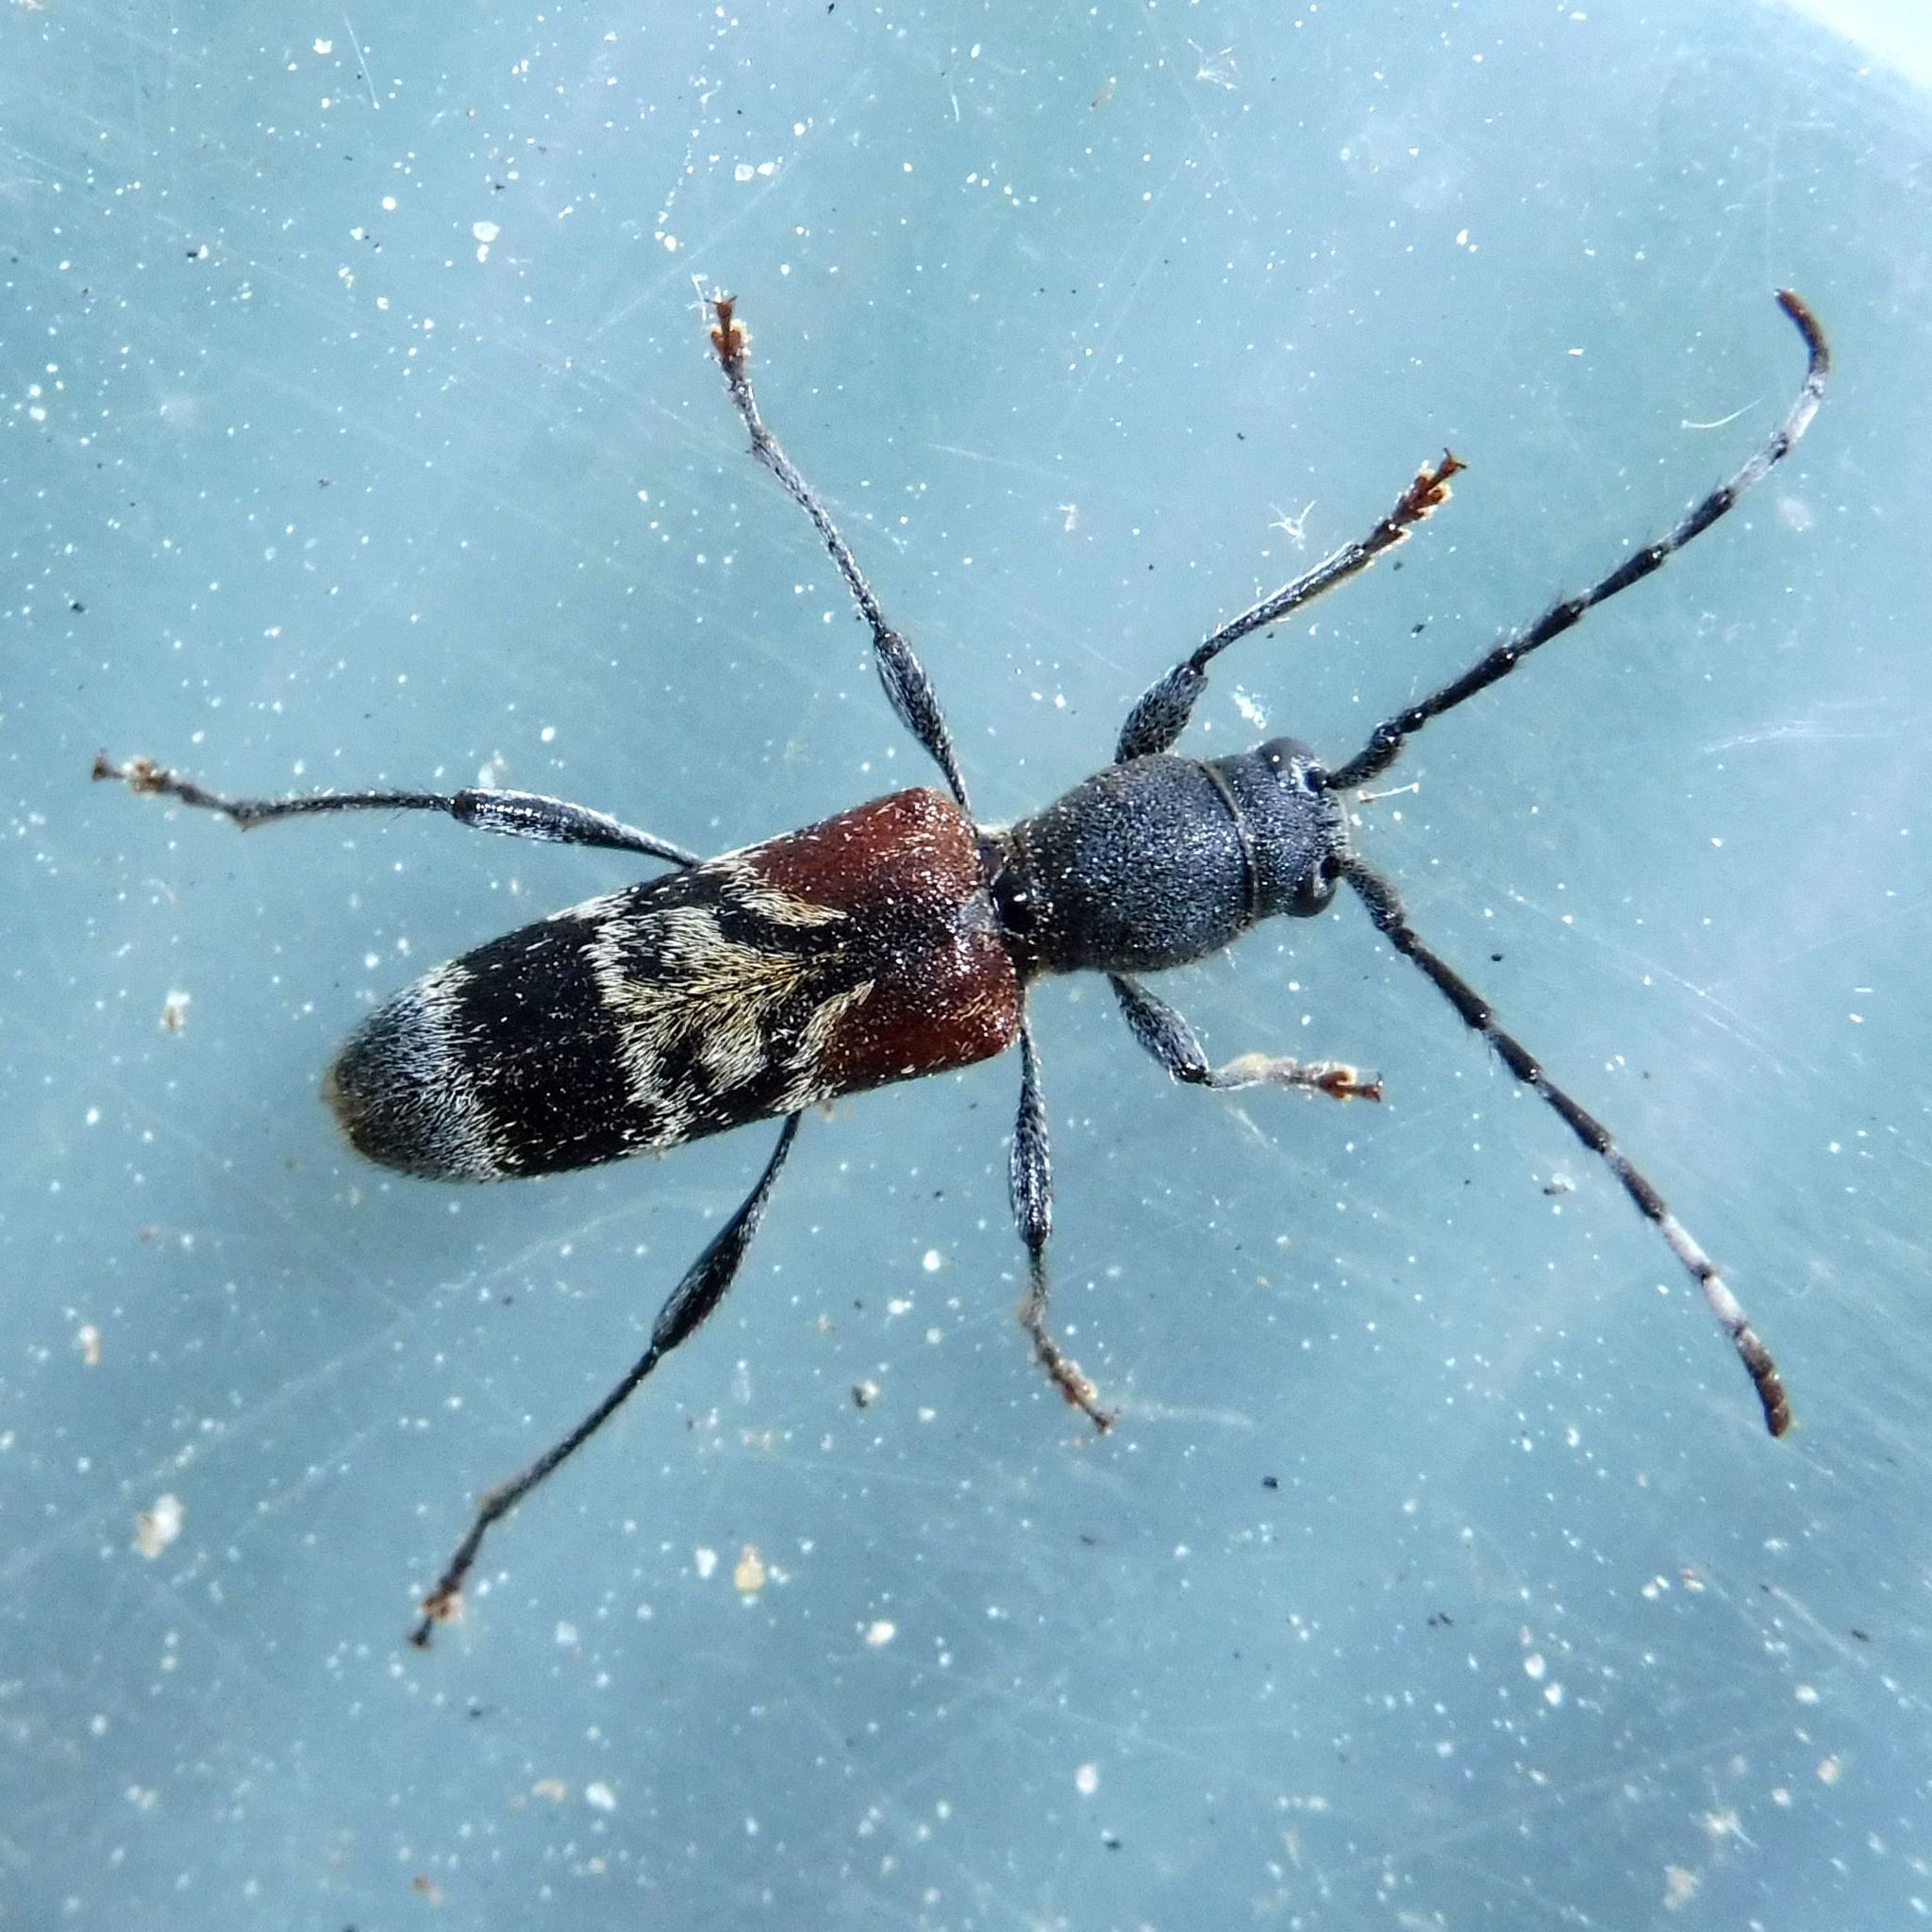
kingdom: Animalia
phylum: Arthropoda
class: Insecta
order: Coleoptera
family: Cerambycidae
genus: Anaglyptus
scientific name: Anaglyptus mysticus
